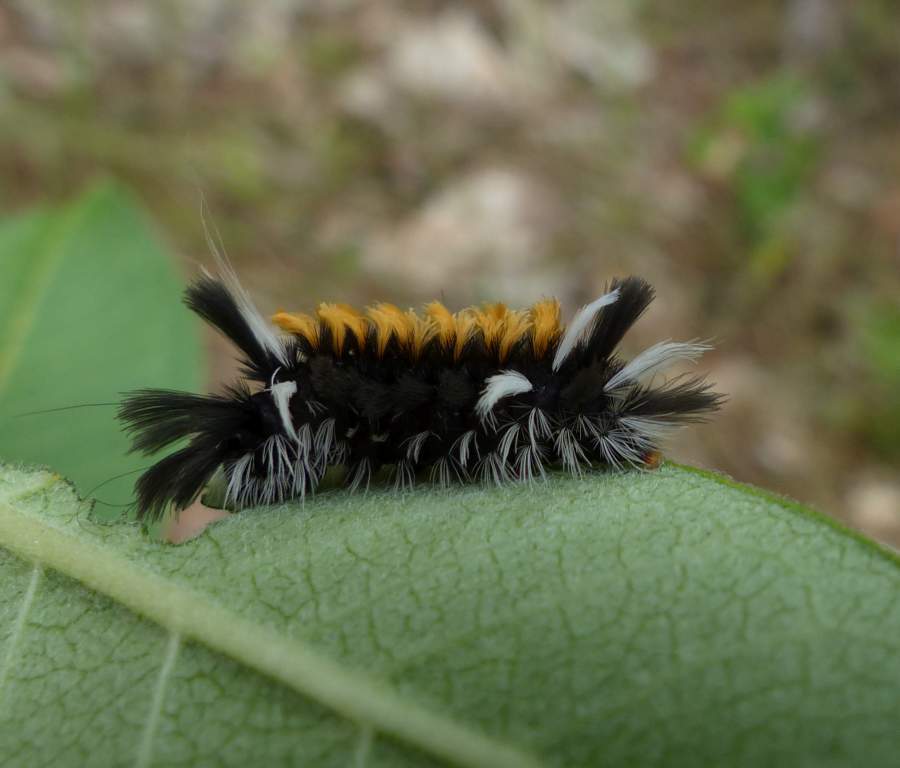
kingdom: Animalia
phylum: Arthropoda
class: Insecta
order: Lepidoptera
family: Erebidae
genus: Euchaetes
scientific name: Euchaetes egle
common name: Milkweed tussock moth
